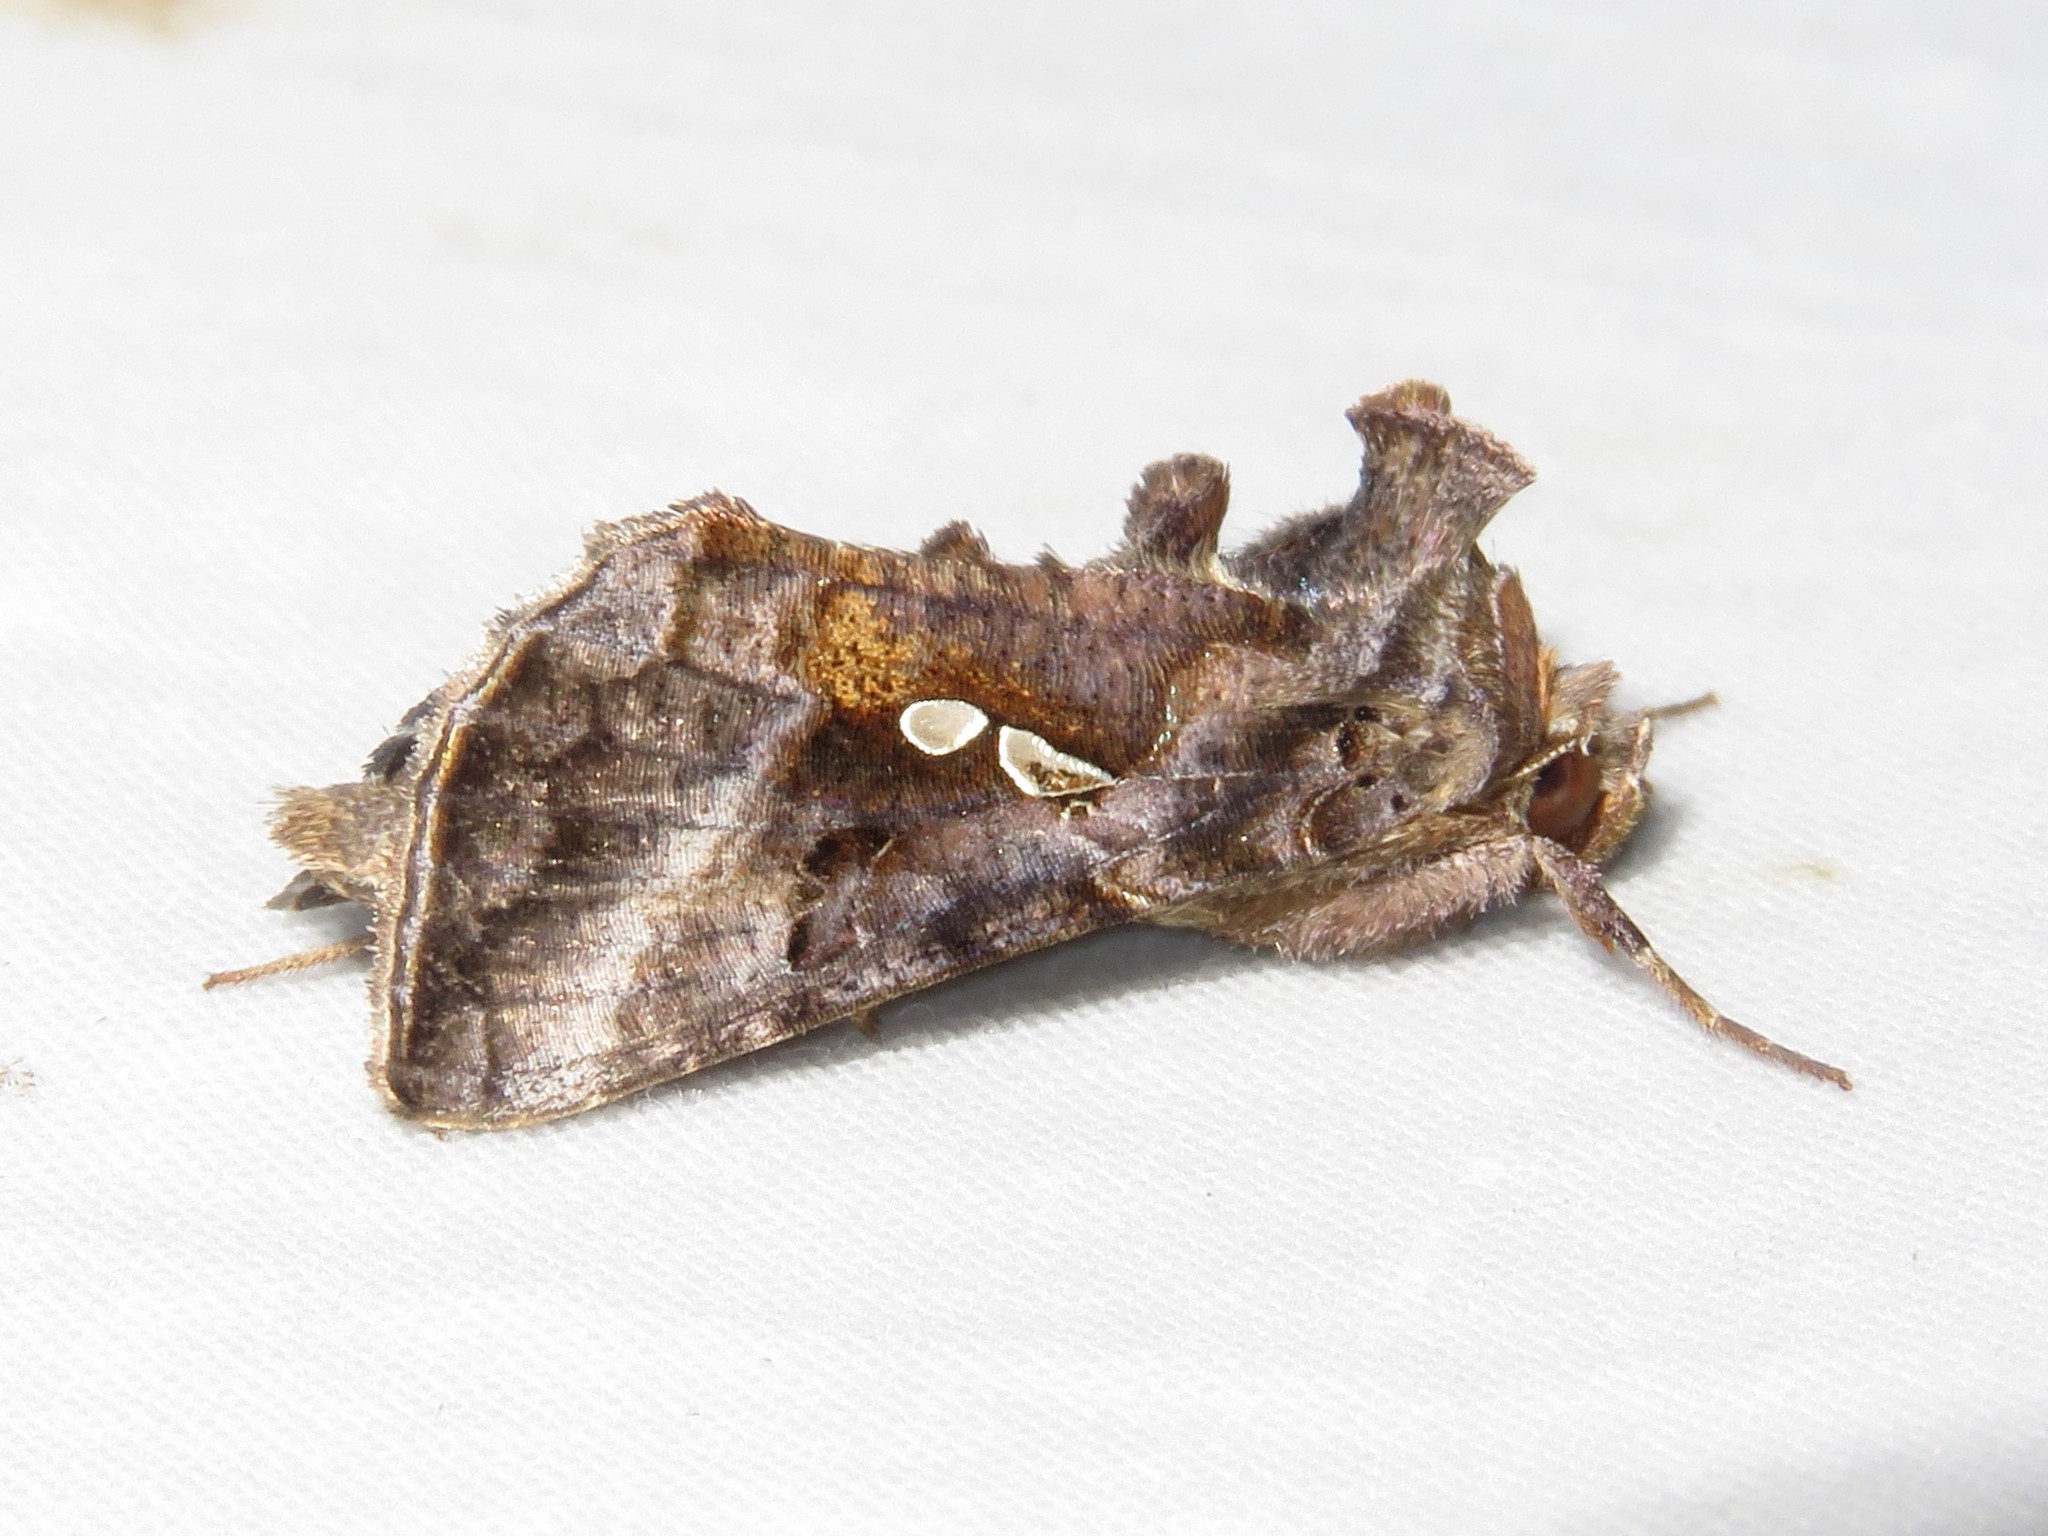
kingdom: Animalia
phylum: Arthropoda
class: Insecta
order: Lepidoptera
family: Noctuidae
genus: Autographa
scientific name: Autographa precationis
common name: Common looper moth
